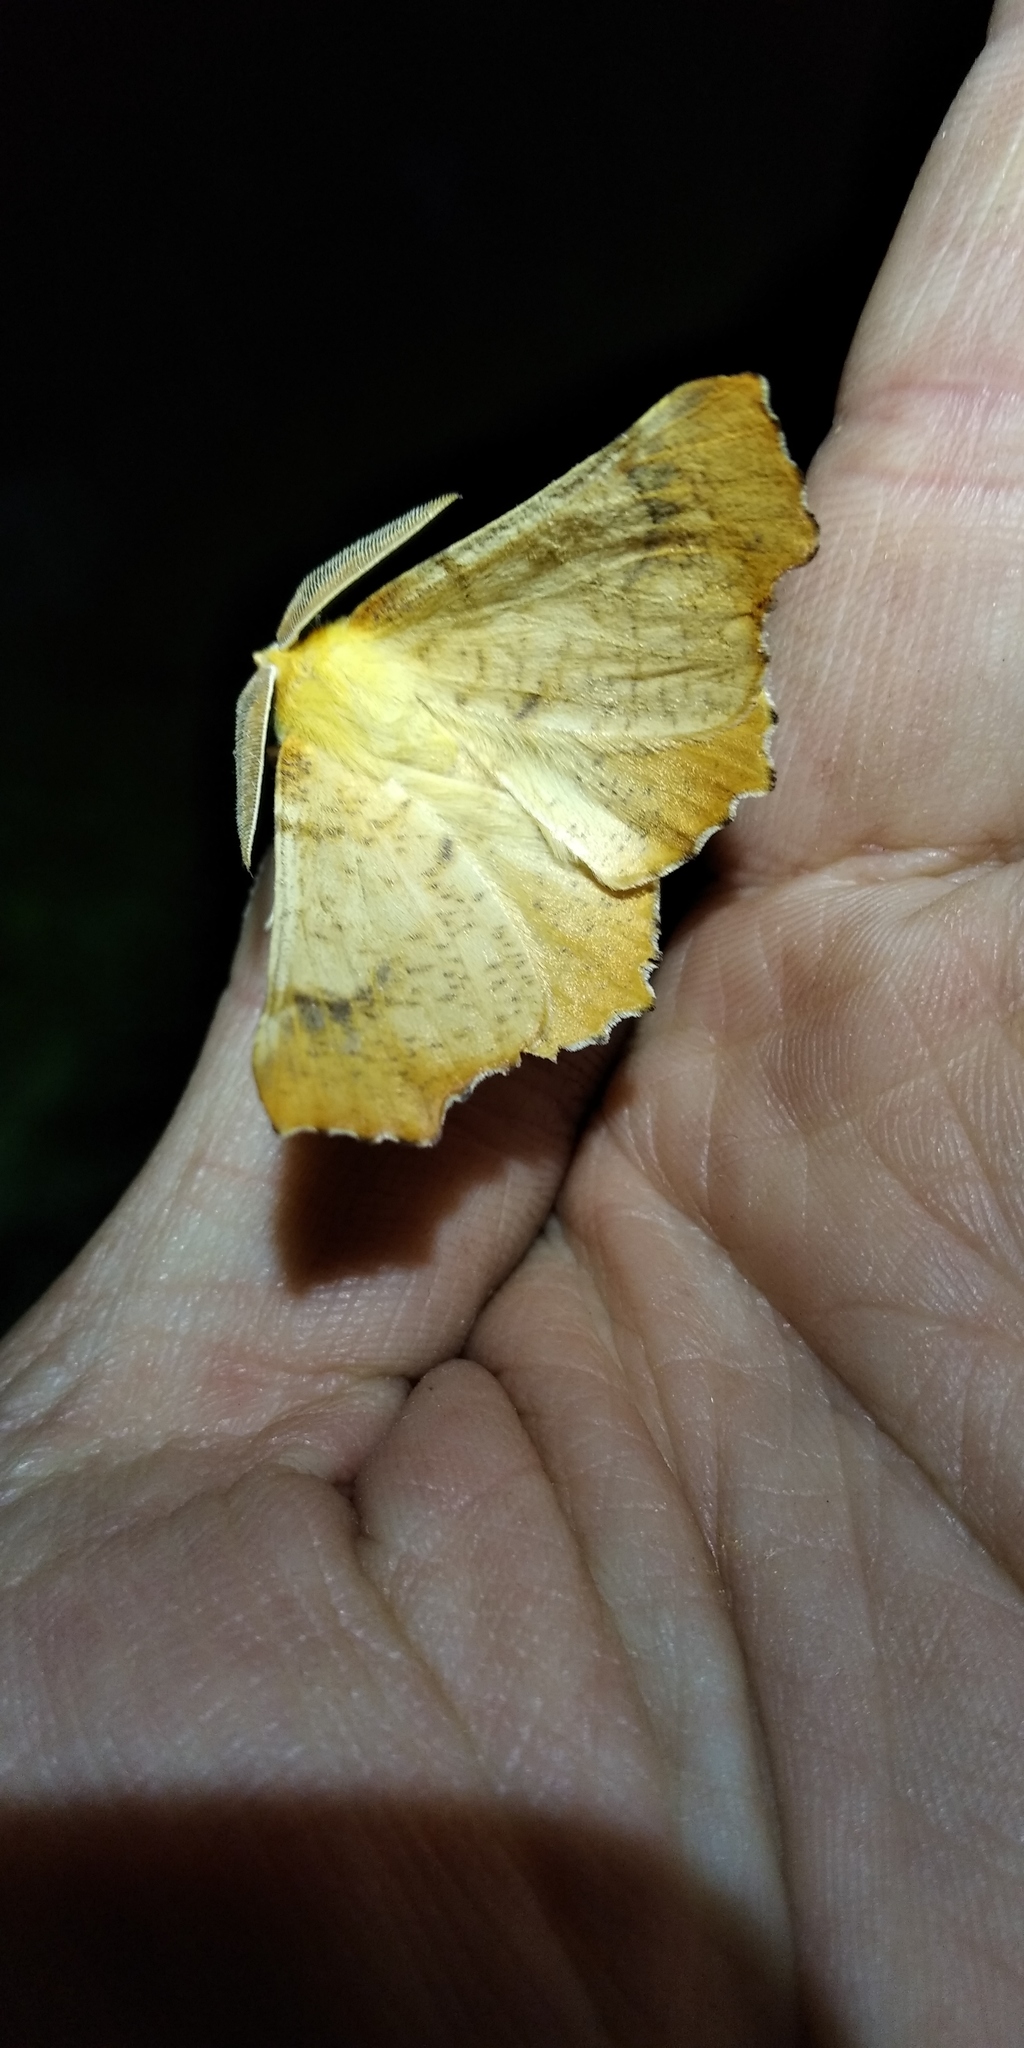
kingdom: Animalia
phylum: Arthropoda
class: Insecta
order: Lepidoptera
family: Geometridae
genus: Ennomos
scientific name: Ennomos autumnaria
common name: Large thorn
